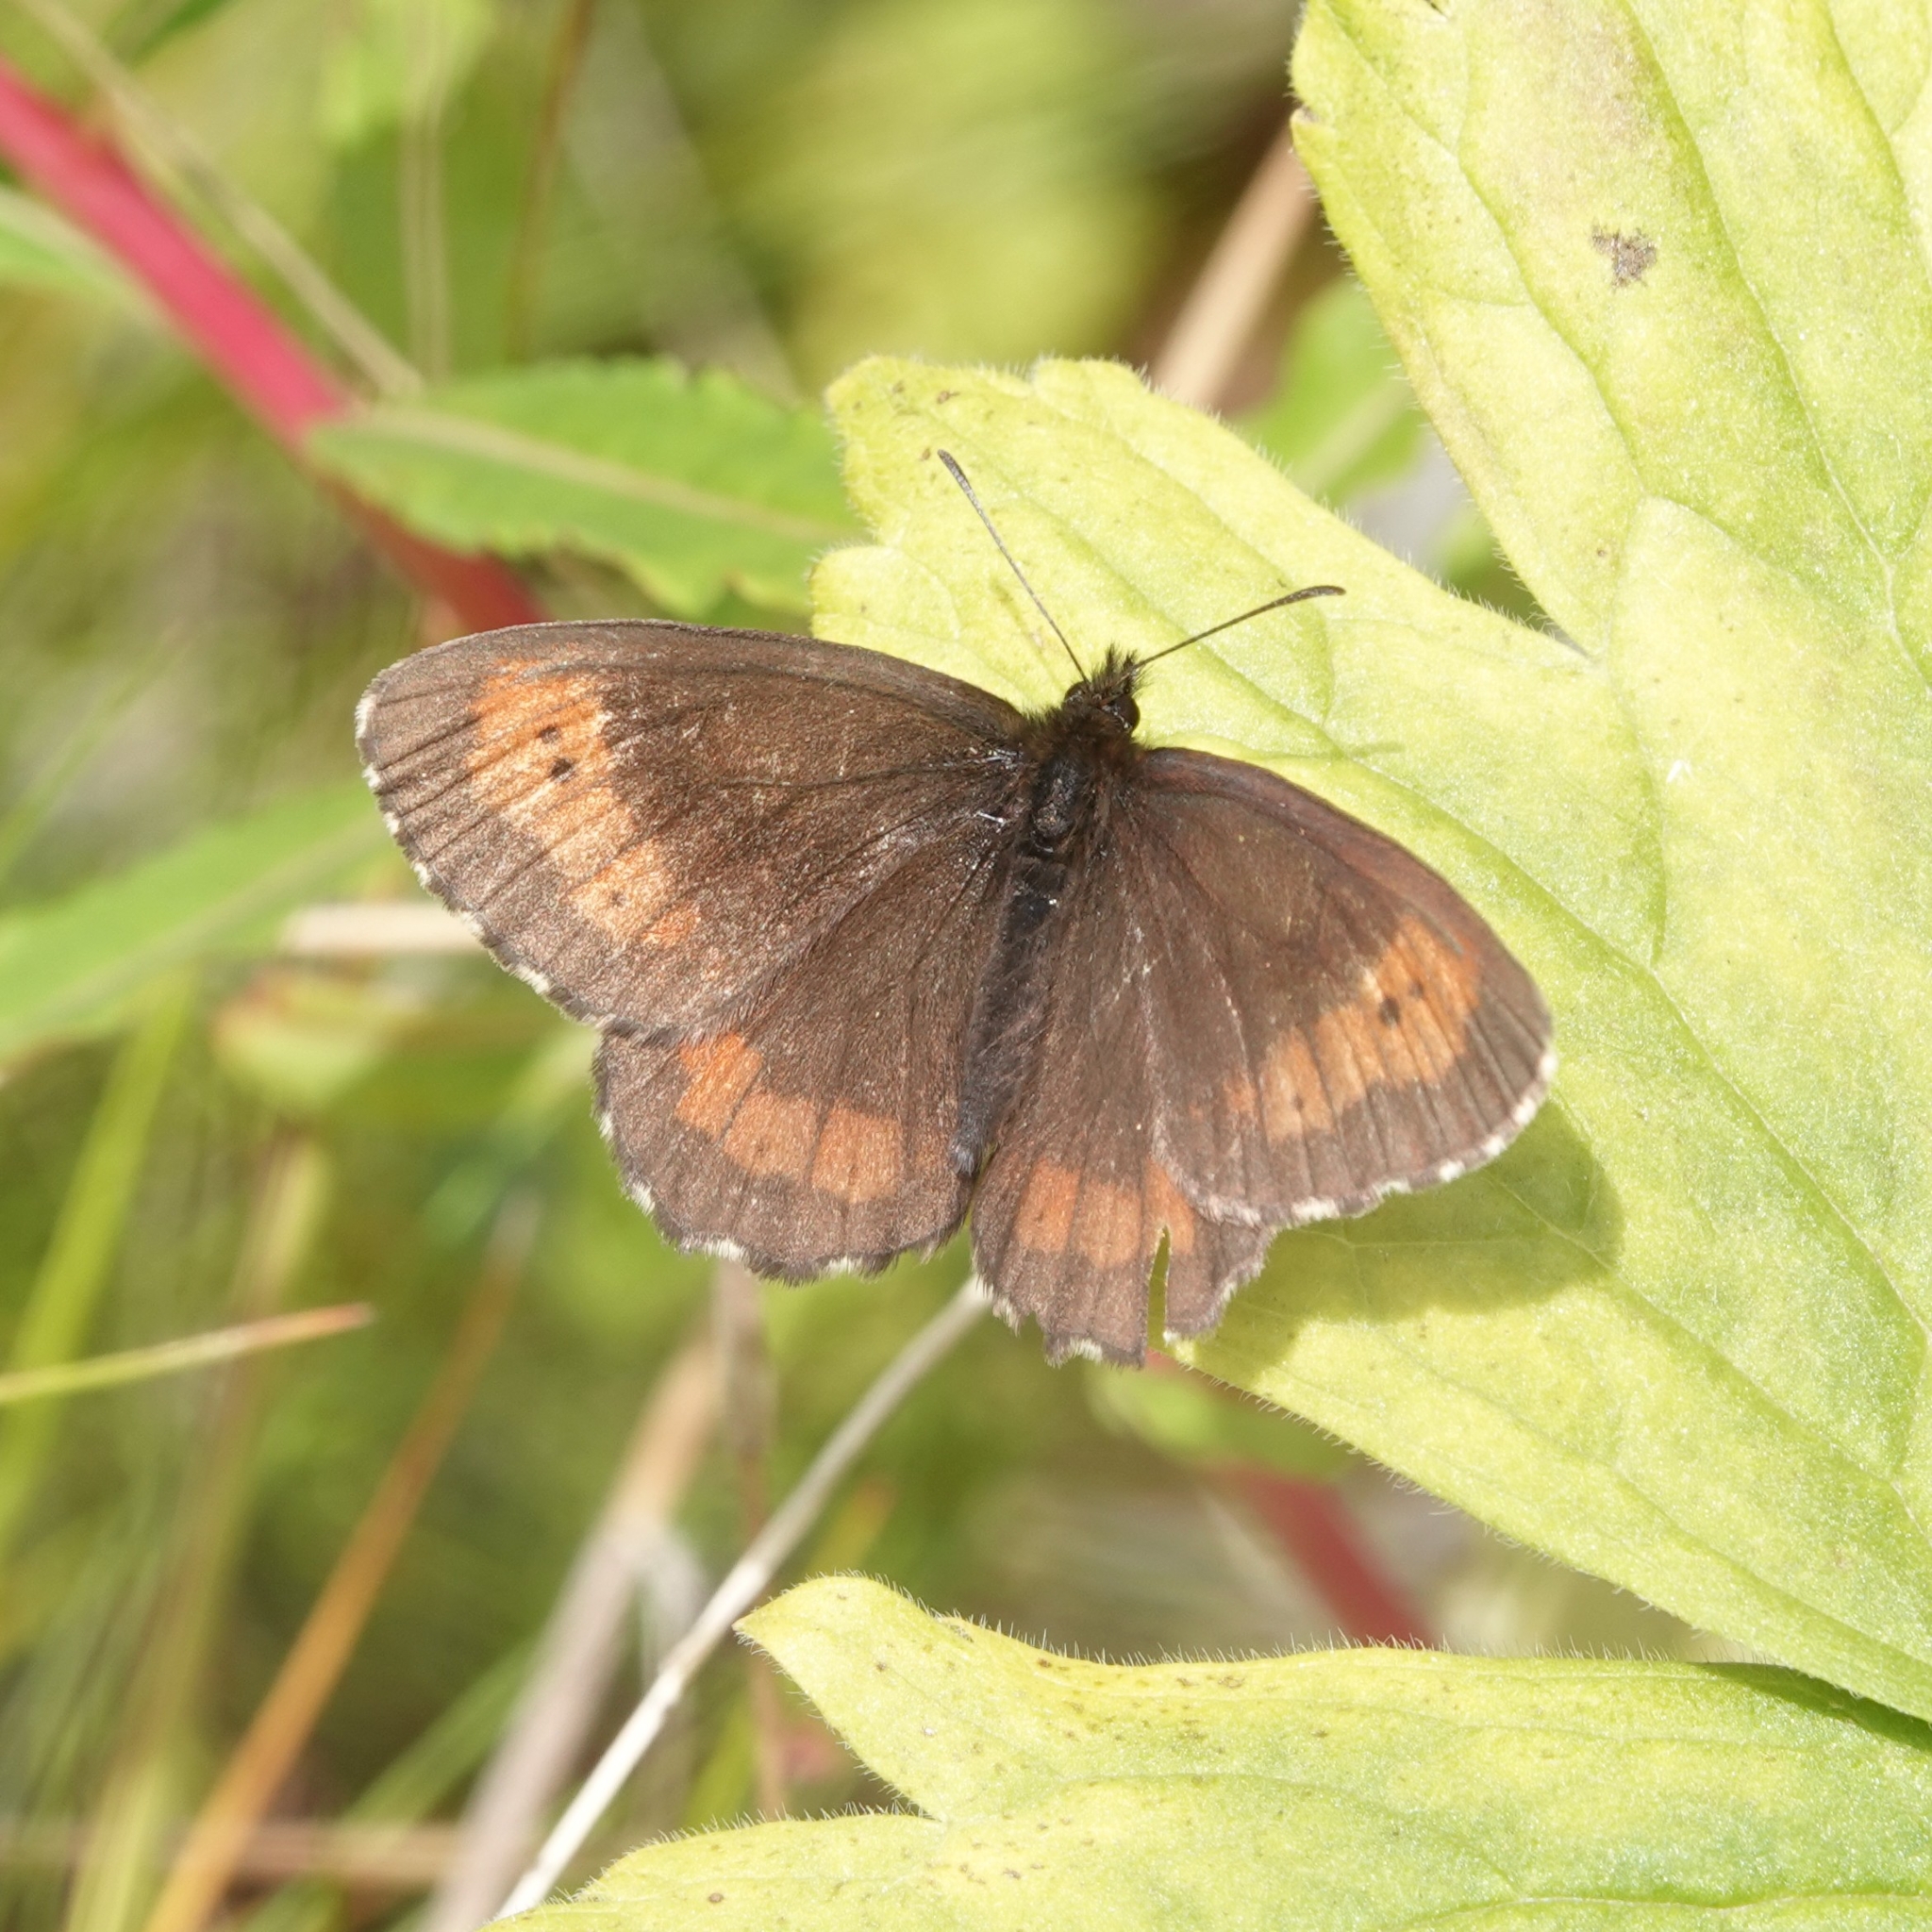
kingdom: Animalia
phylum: Arthropoda
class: Insecta
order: Lepidoptera
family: Nymphalidae
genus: Erebia
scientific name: Erebia ligea
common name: Arran brown
